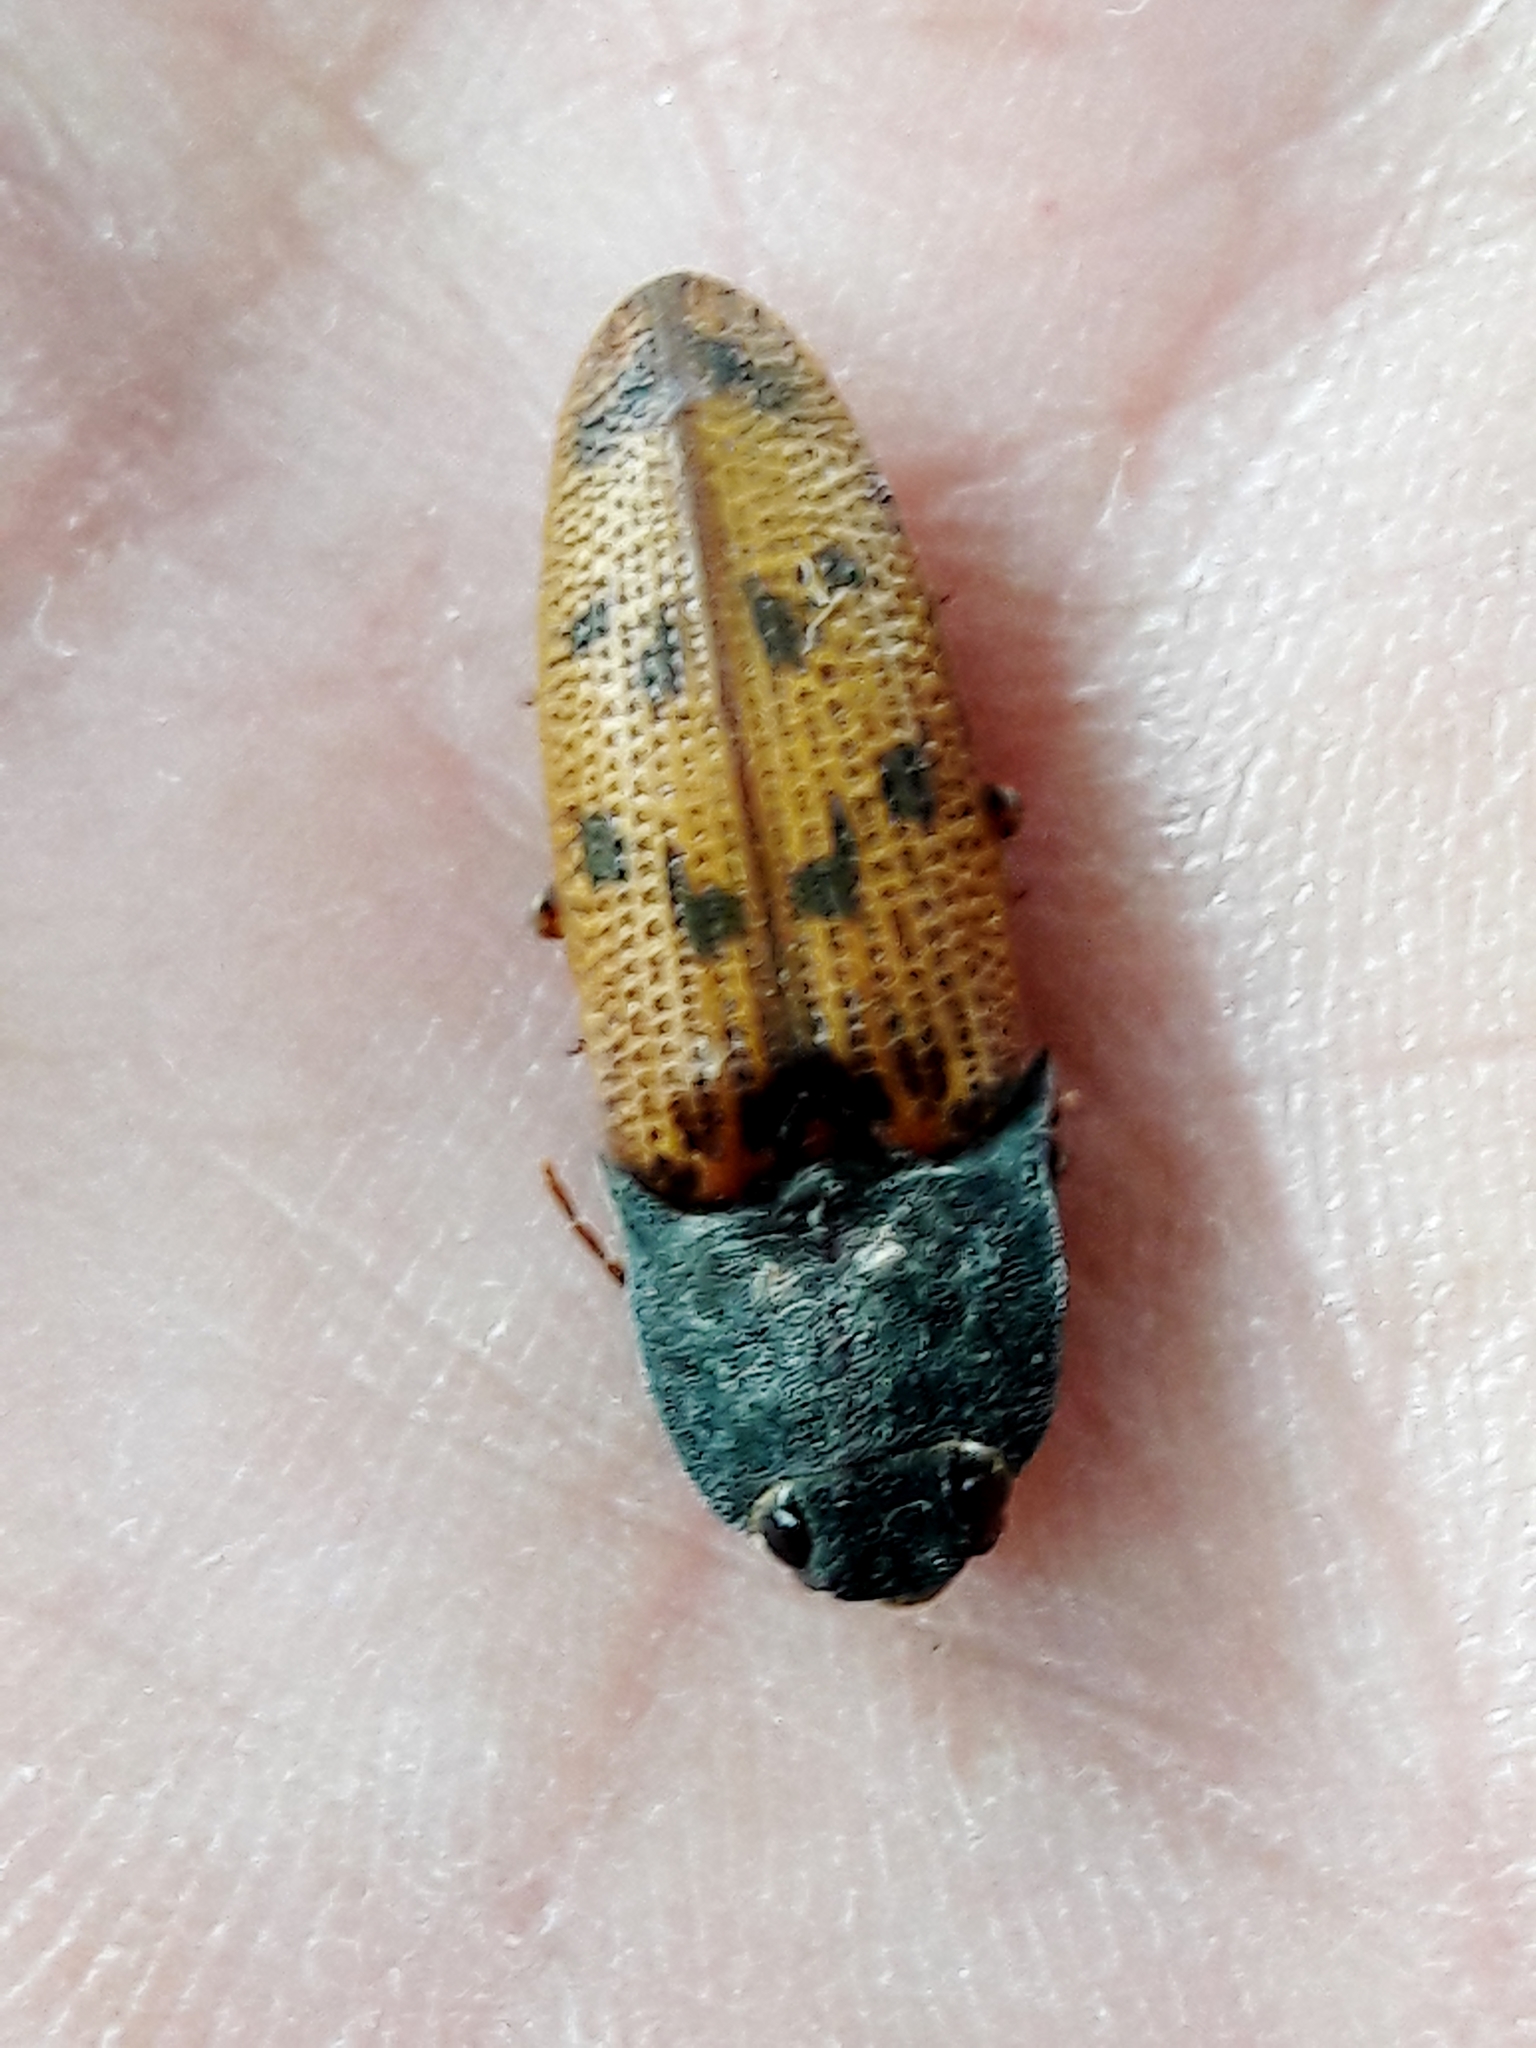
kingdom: Animalia
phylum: Arthropoda
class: Insecta
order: Coleoptera
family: Elateridae
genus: Monocrepidius
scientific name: Monocrepidius
